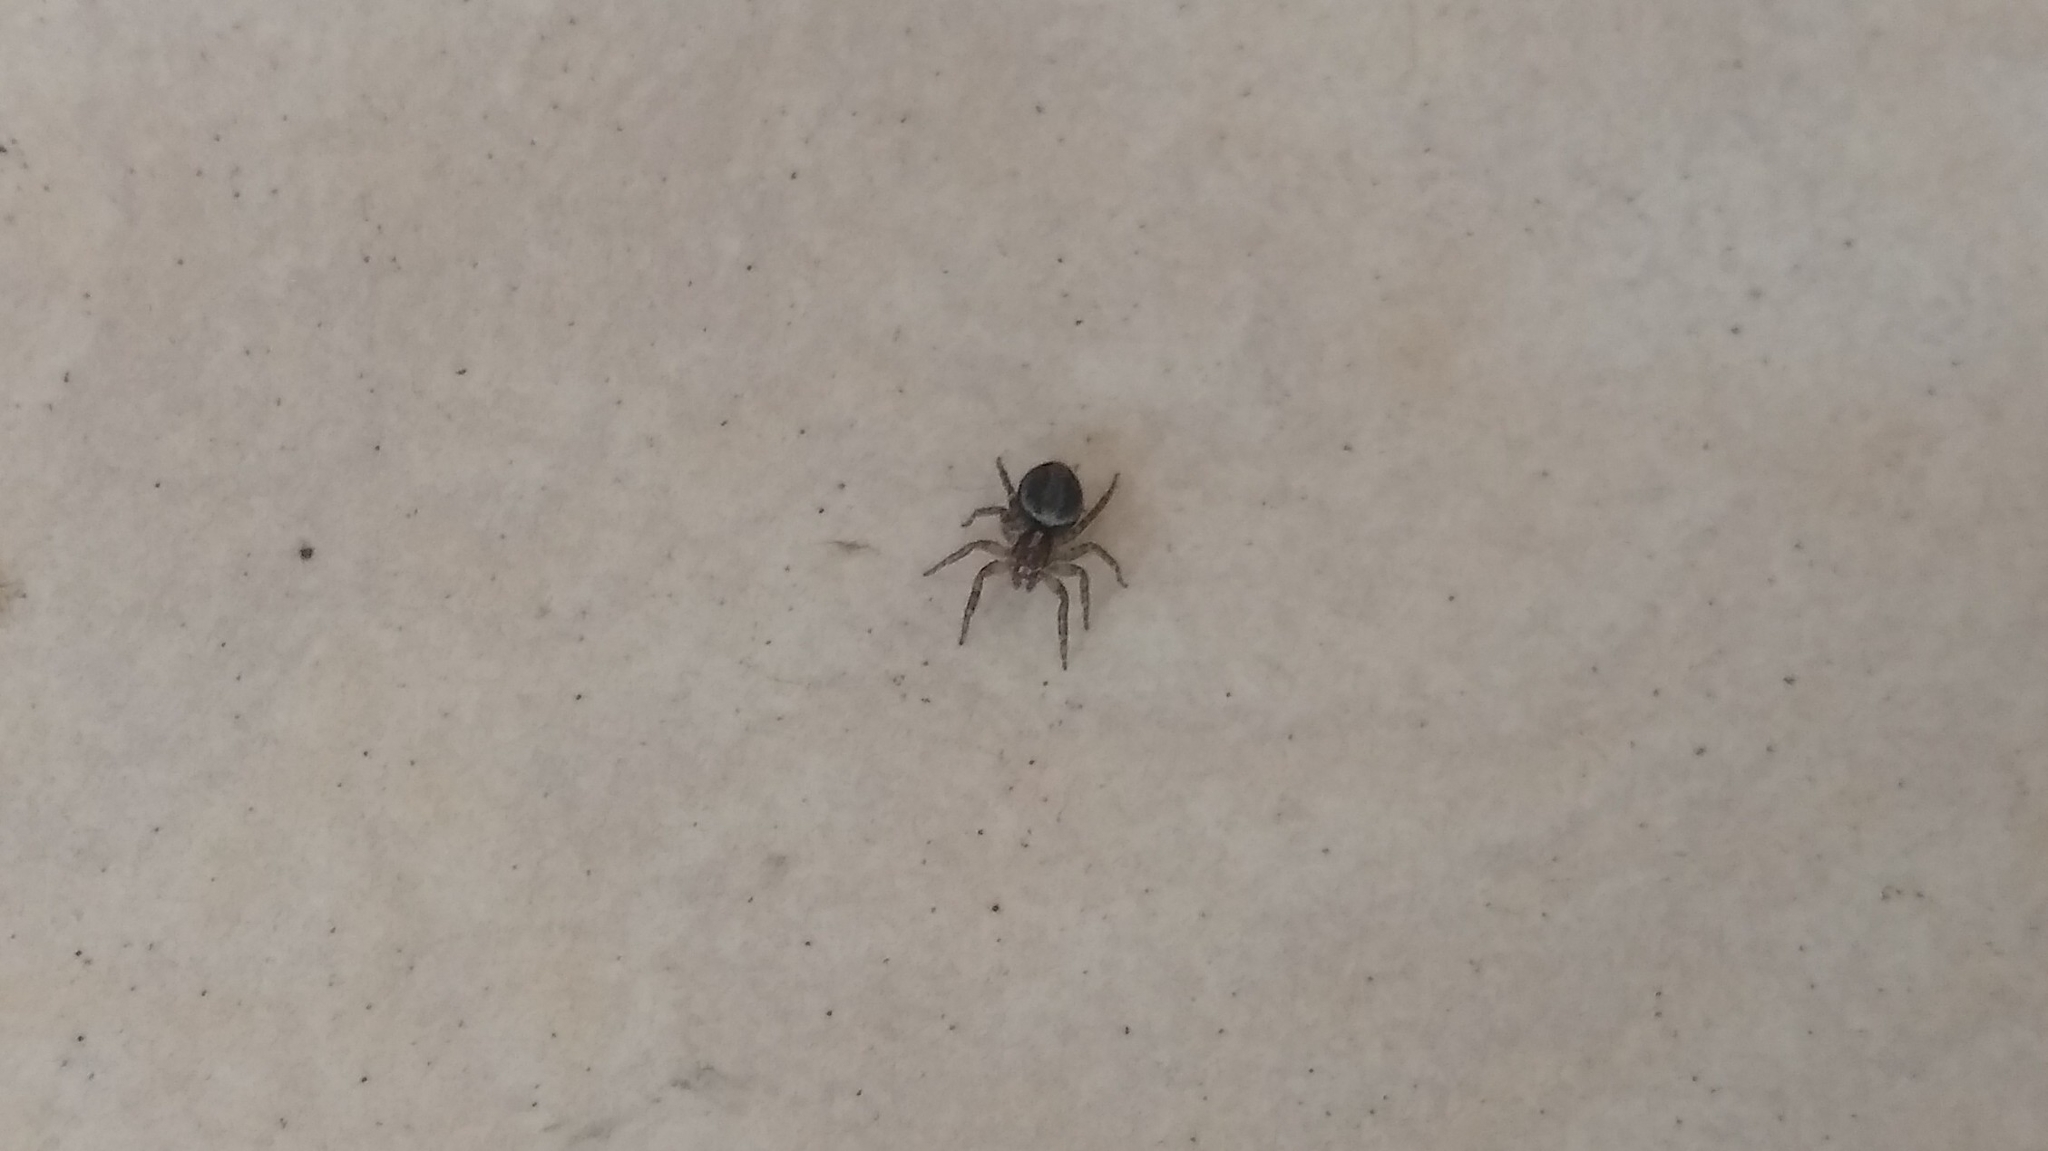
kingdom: Animalia
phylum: Arthropoda
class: Arachnida
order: Araneae
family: Salticidae
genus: Saitis
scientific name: Saitis variegatus
